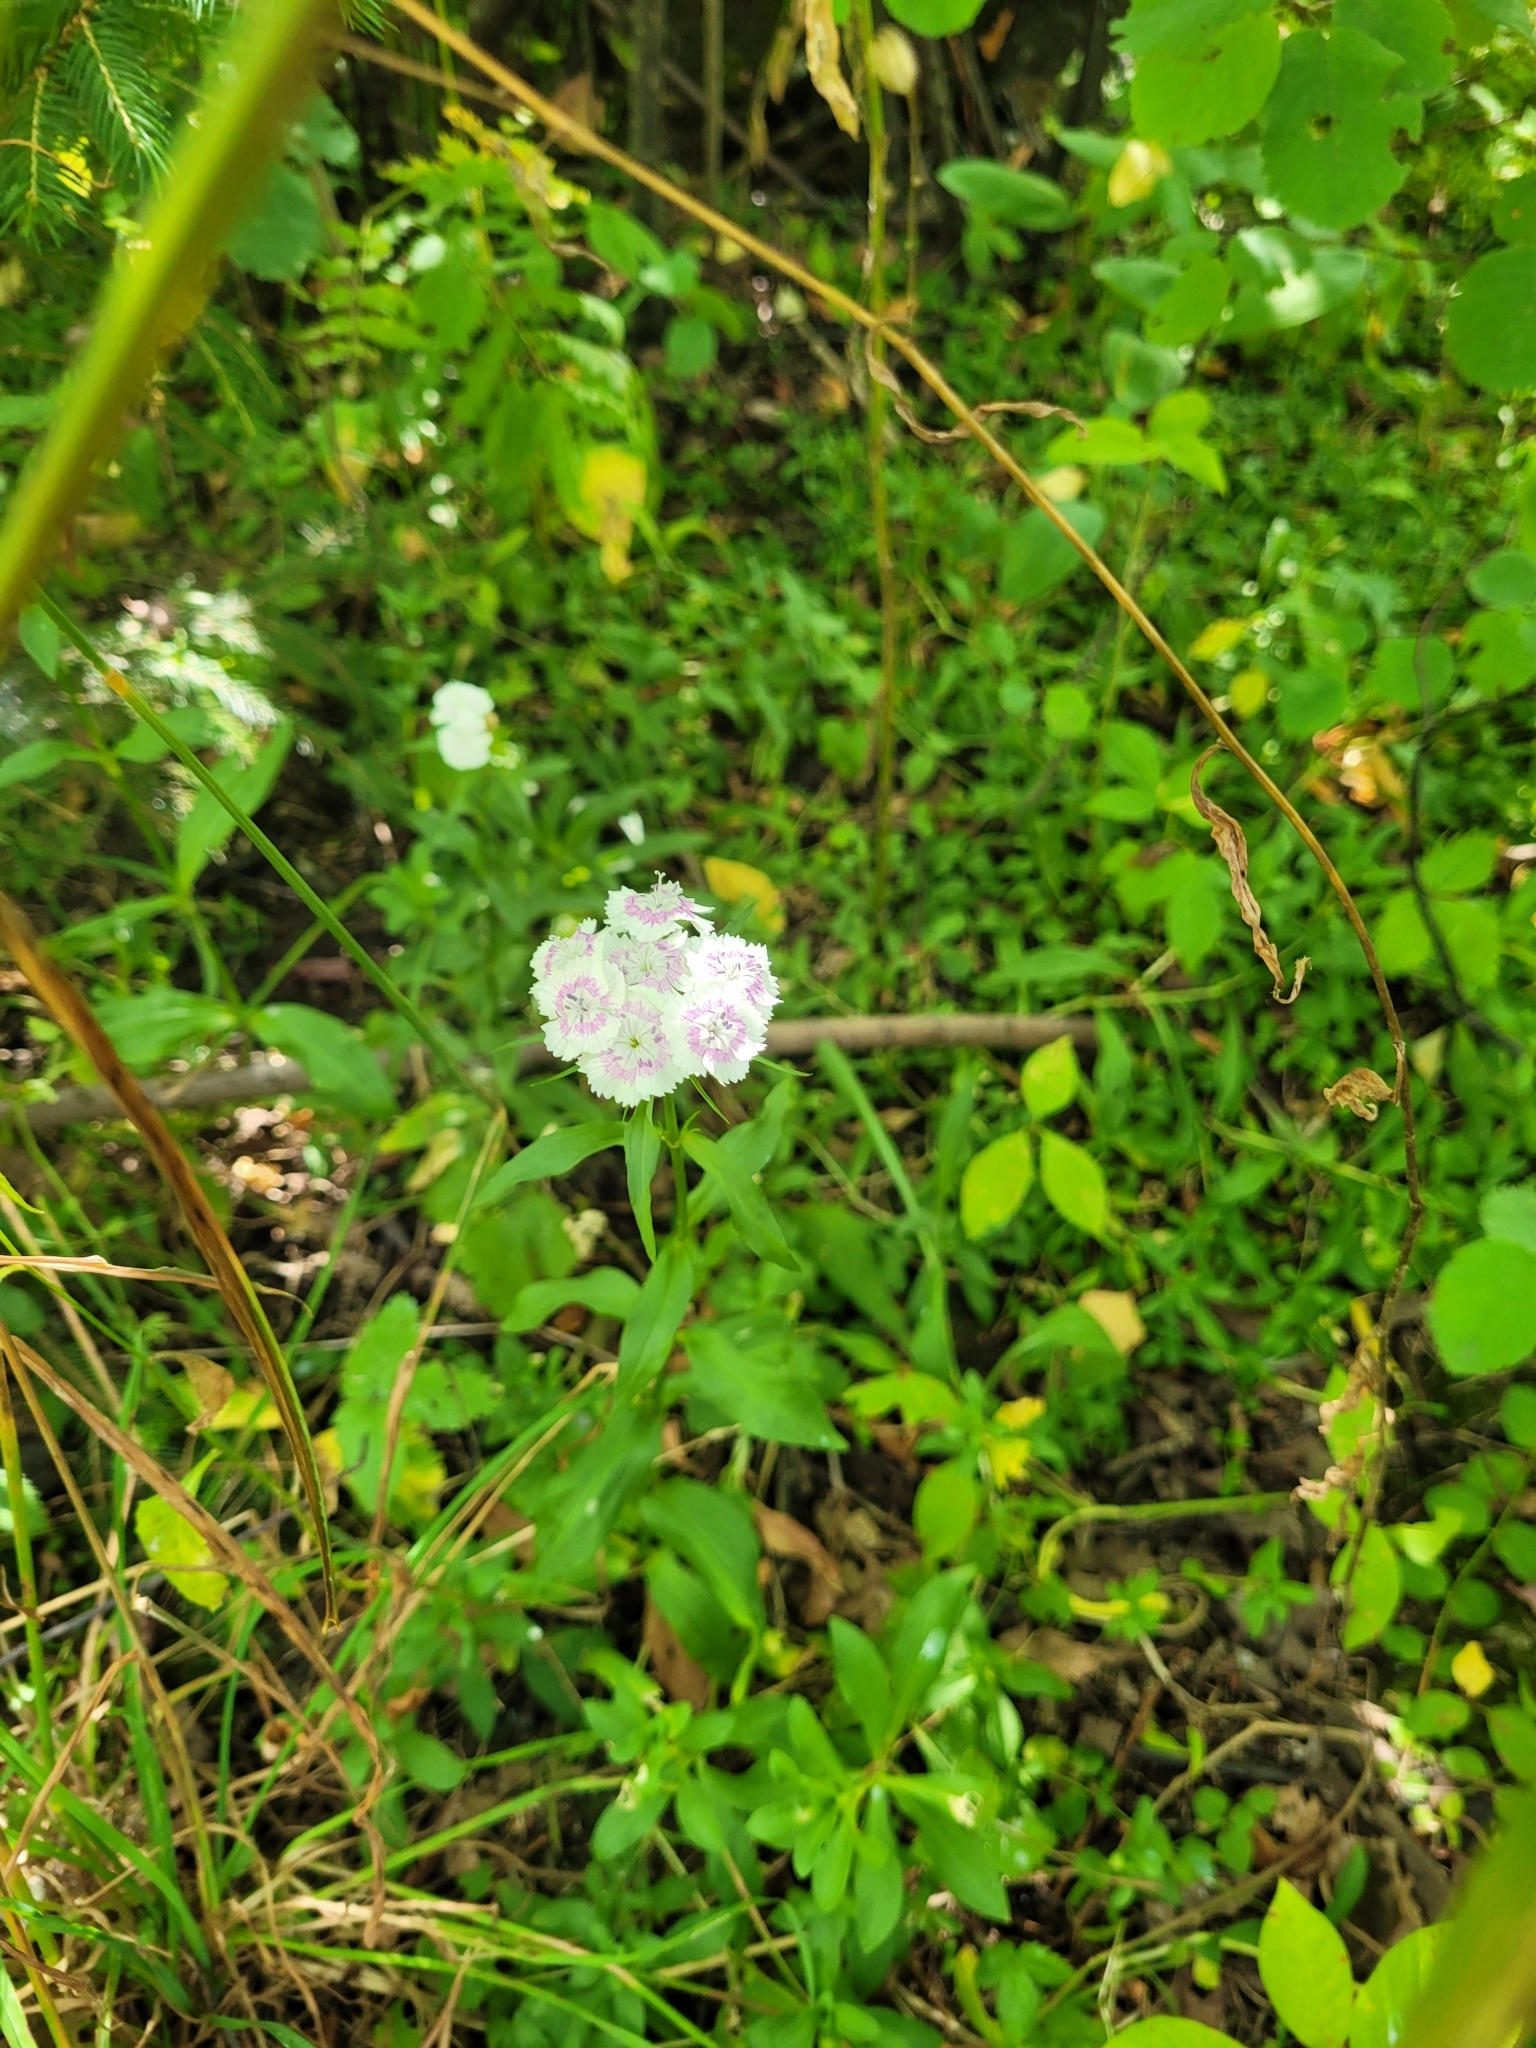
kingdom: Plantae
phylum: Tracheophyta
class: Magnoliopsida
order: Caryophyllales
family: Caryophyllaceae
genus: Dianthus
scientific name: Dianthus barbatus
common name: Sweet-william
